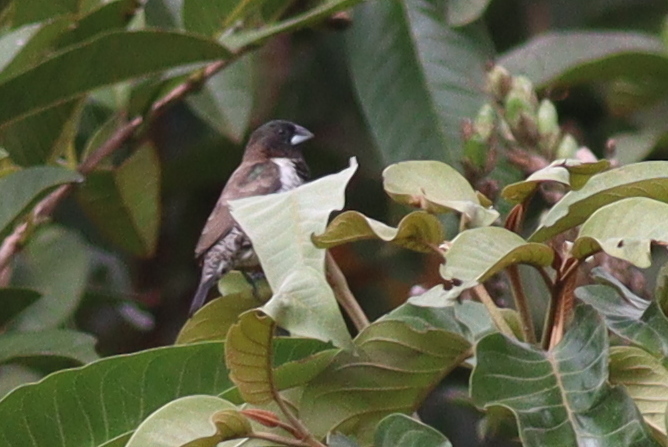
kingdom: Animalia
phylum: Chordata
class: Aves
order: Passeriformes
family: Estrildidae
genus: Lonchura
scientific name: Lonchura cucullata
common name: Bronze mannikin
